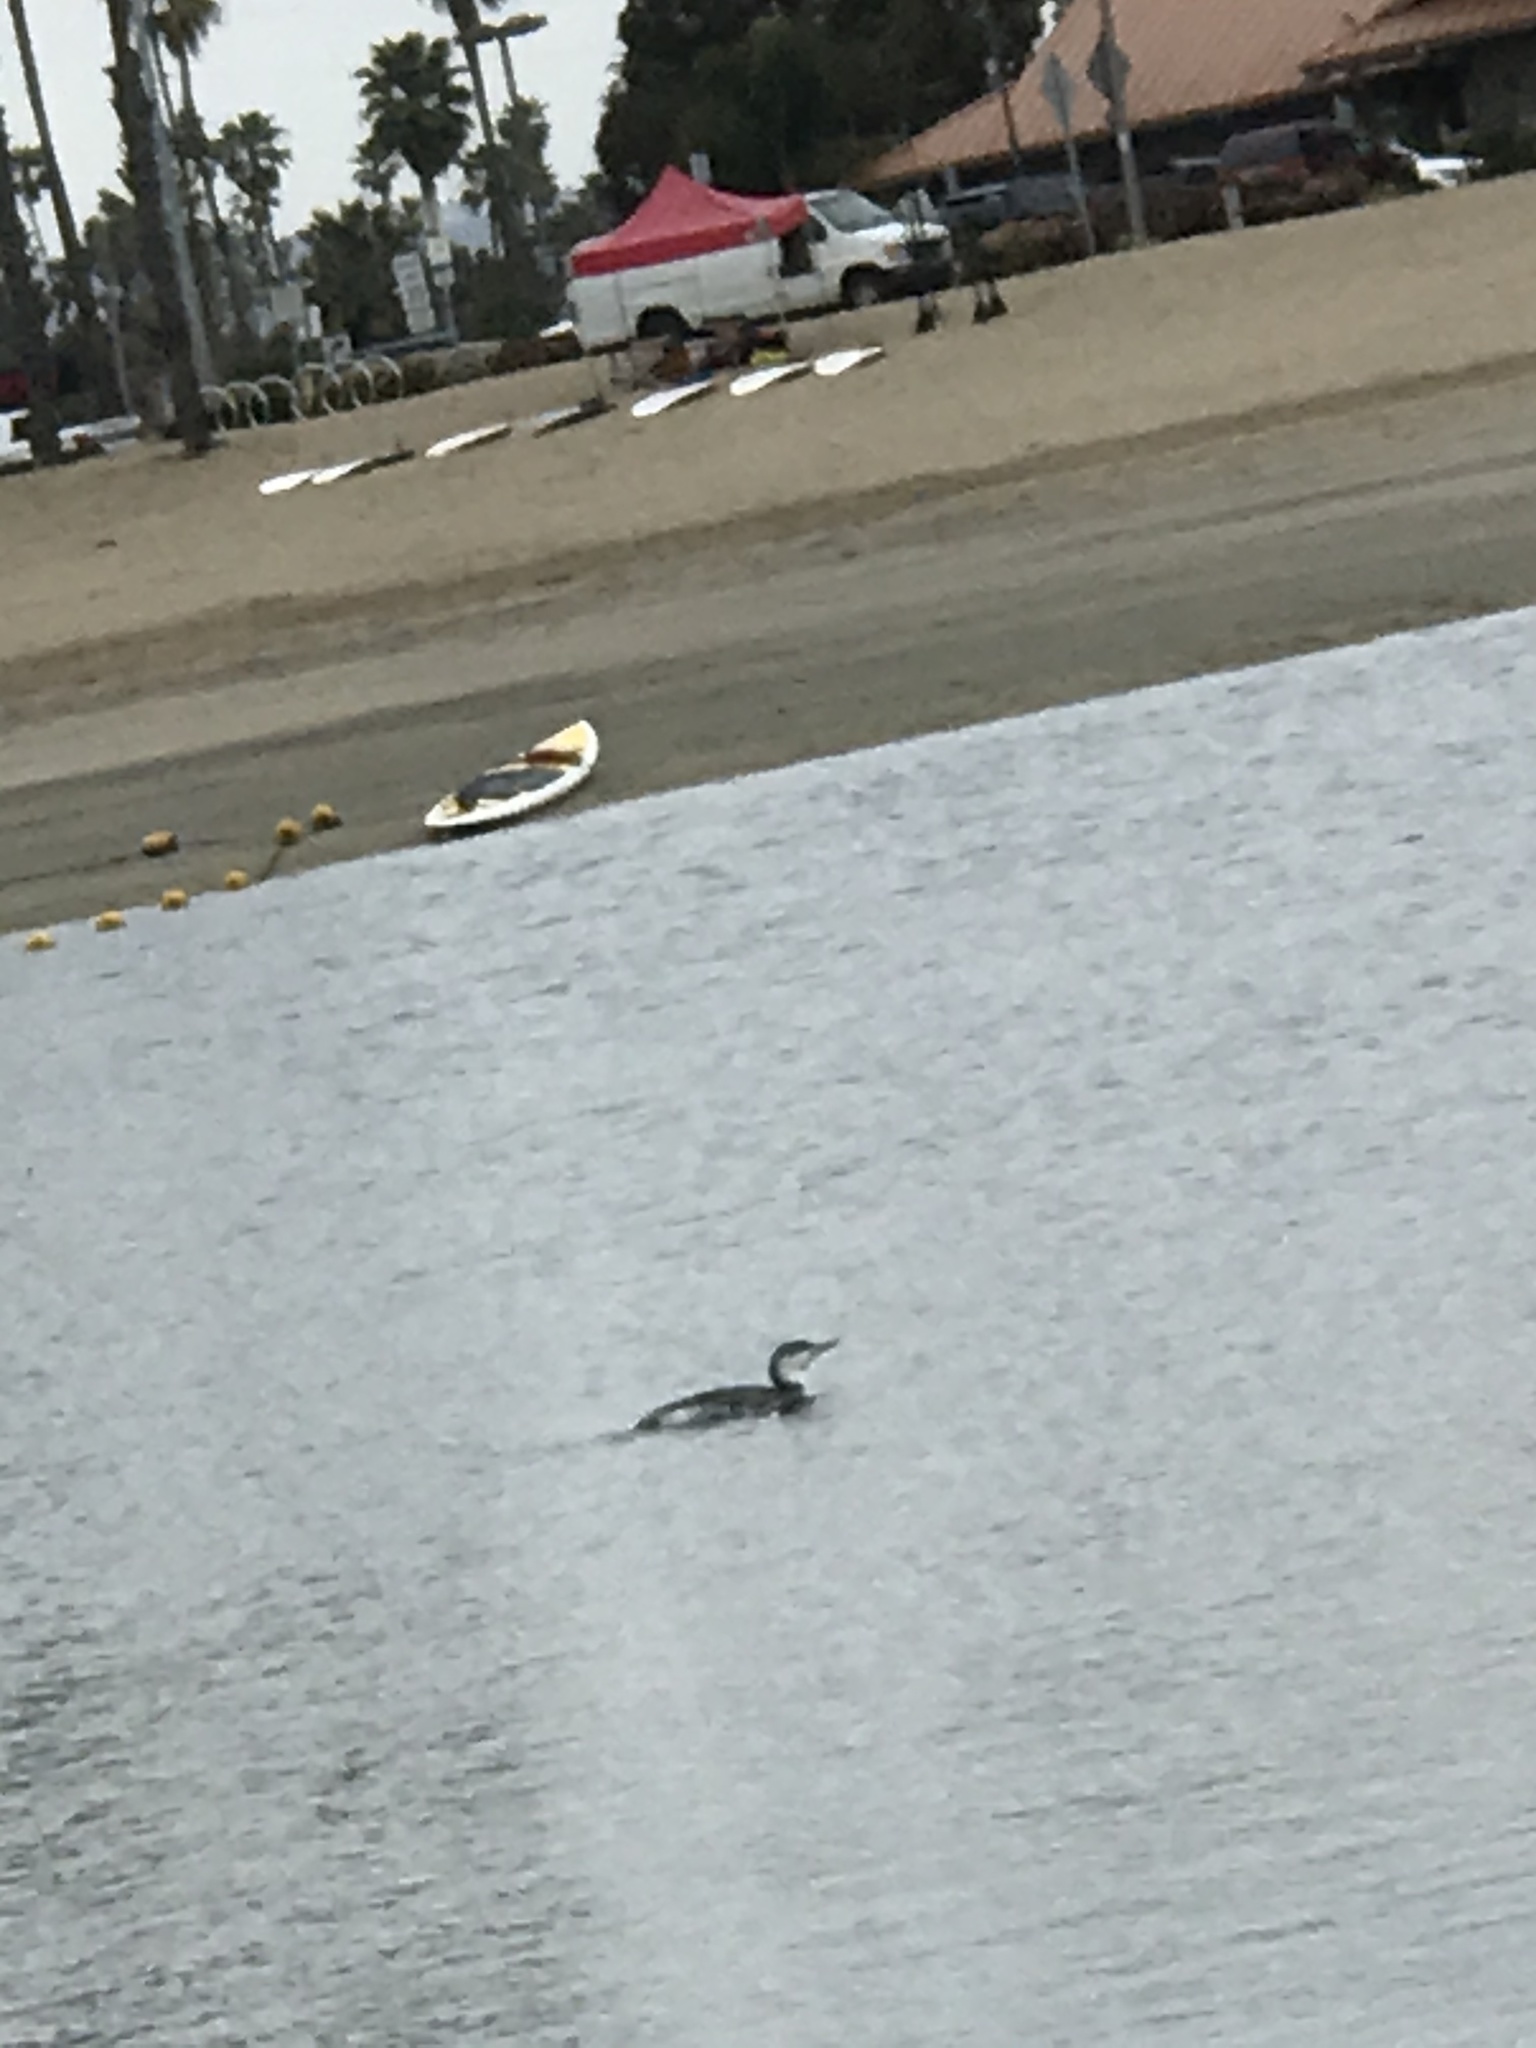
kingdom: Animalia
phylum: Chordata
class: Aves
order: Gaviiformes
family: Gaviidae
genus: Gavia
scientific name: Gavia stellata
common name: Red-throated loon
